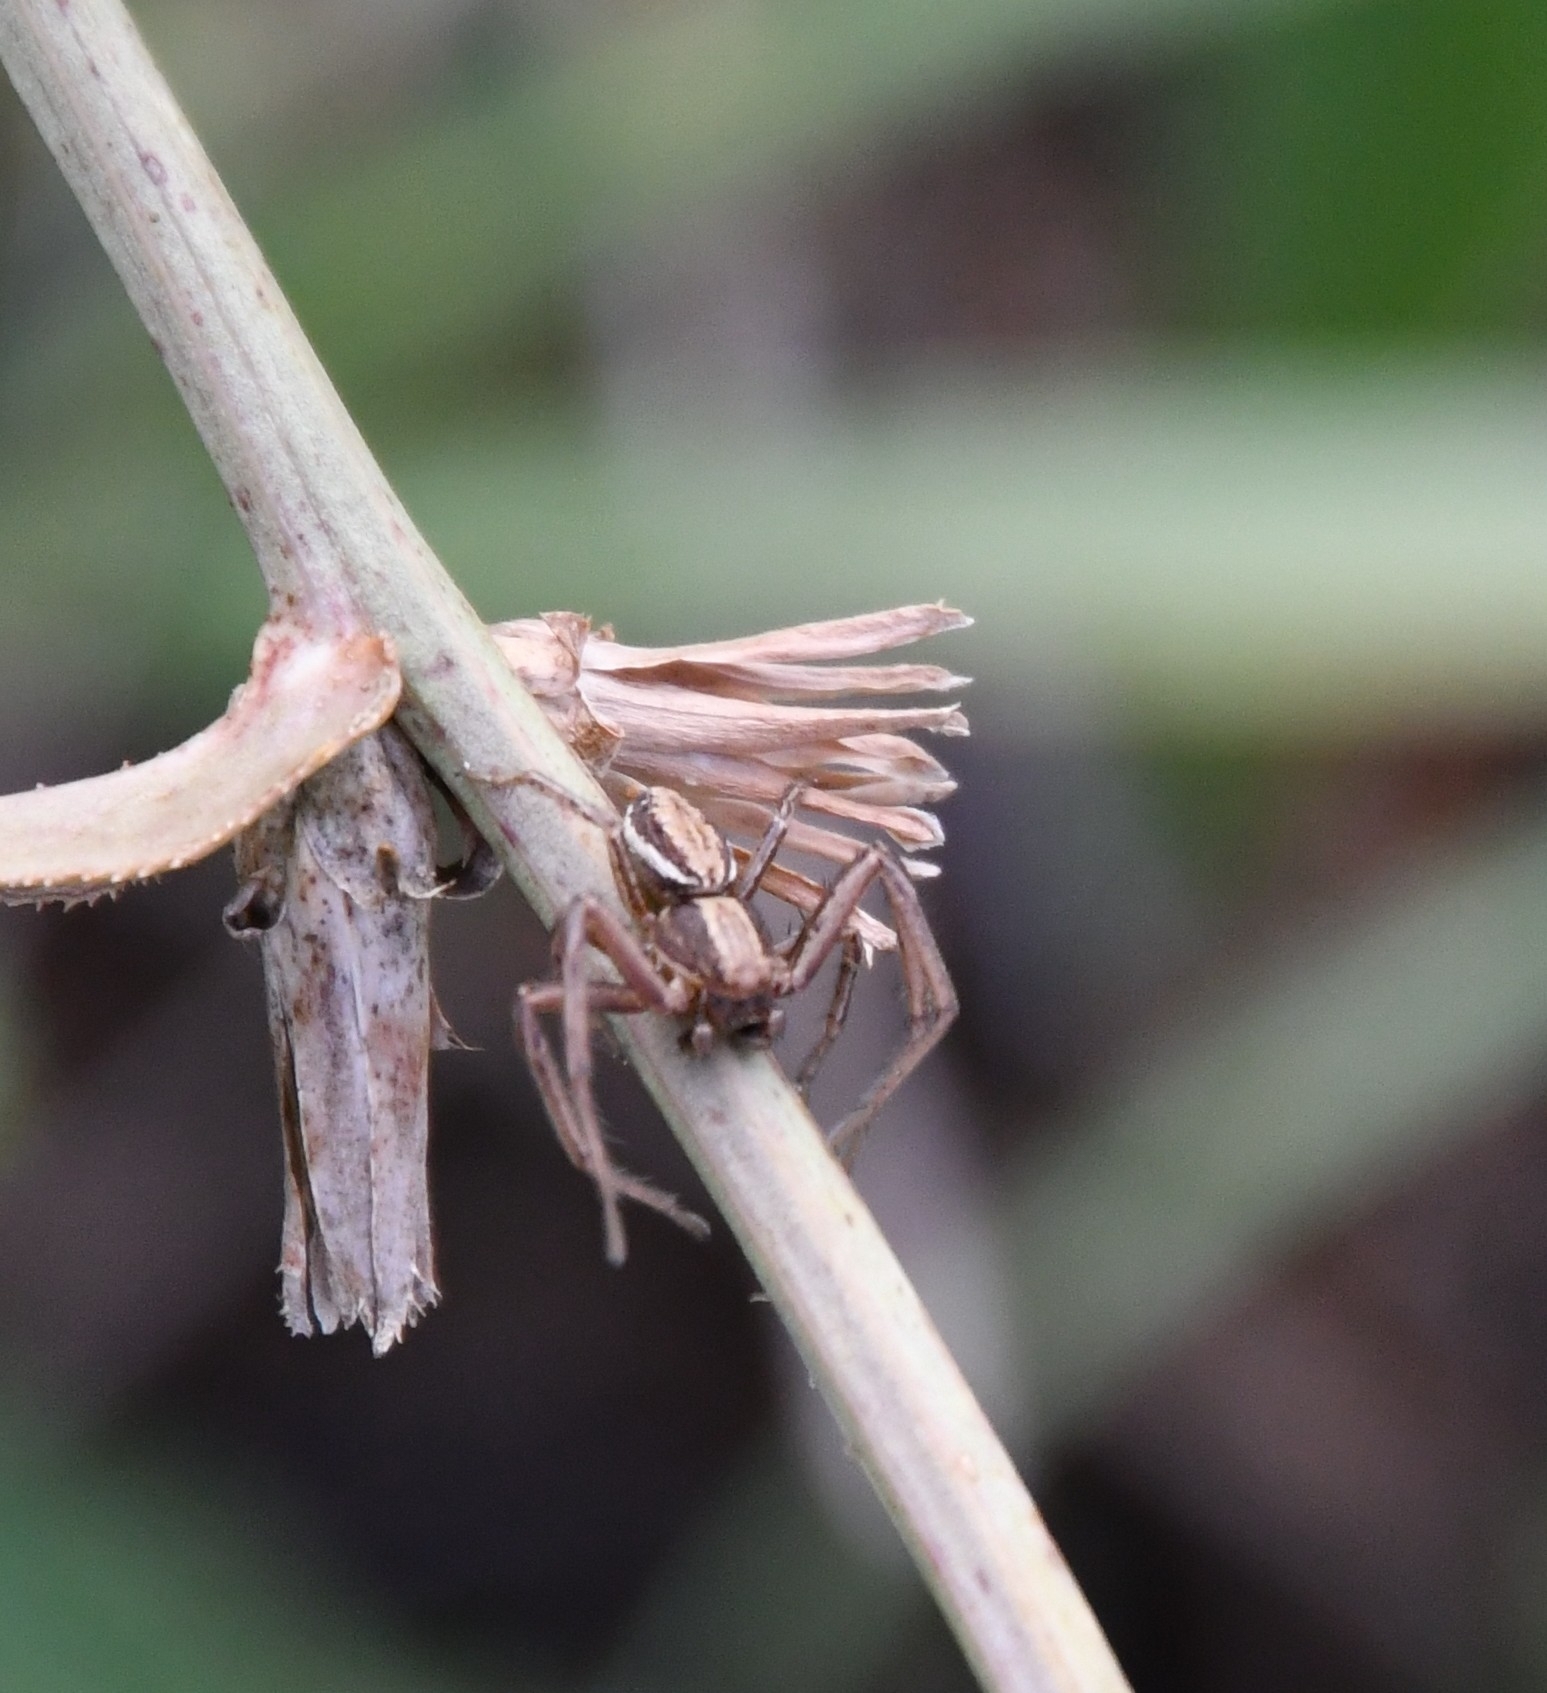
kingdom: Animalia
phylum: Arthropoda
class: Arachnida
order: Araneae
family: Thomisidae
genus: Spiracme
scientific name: Spiracme striatipes
